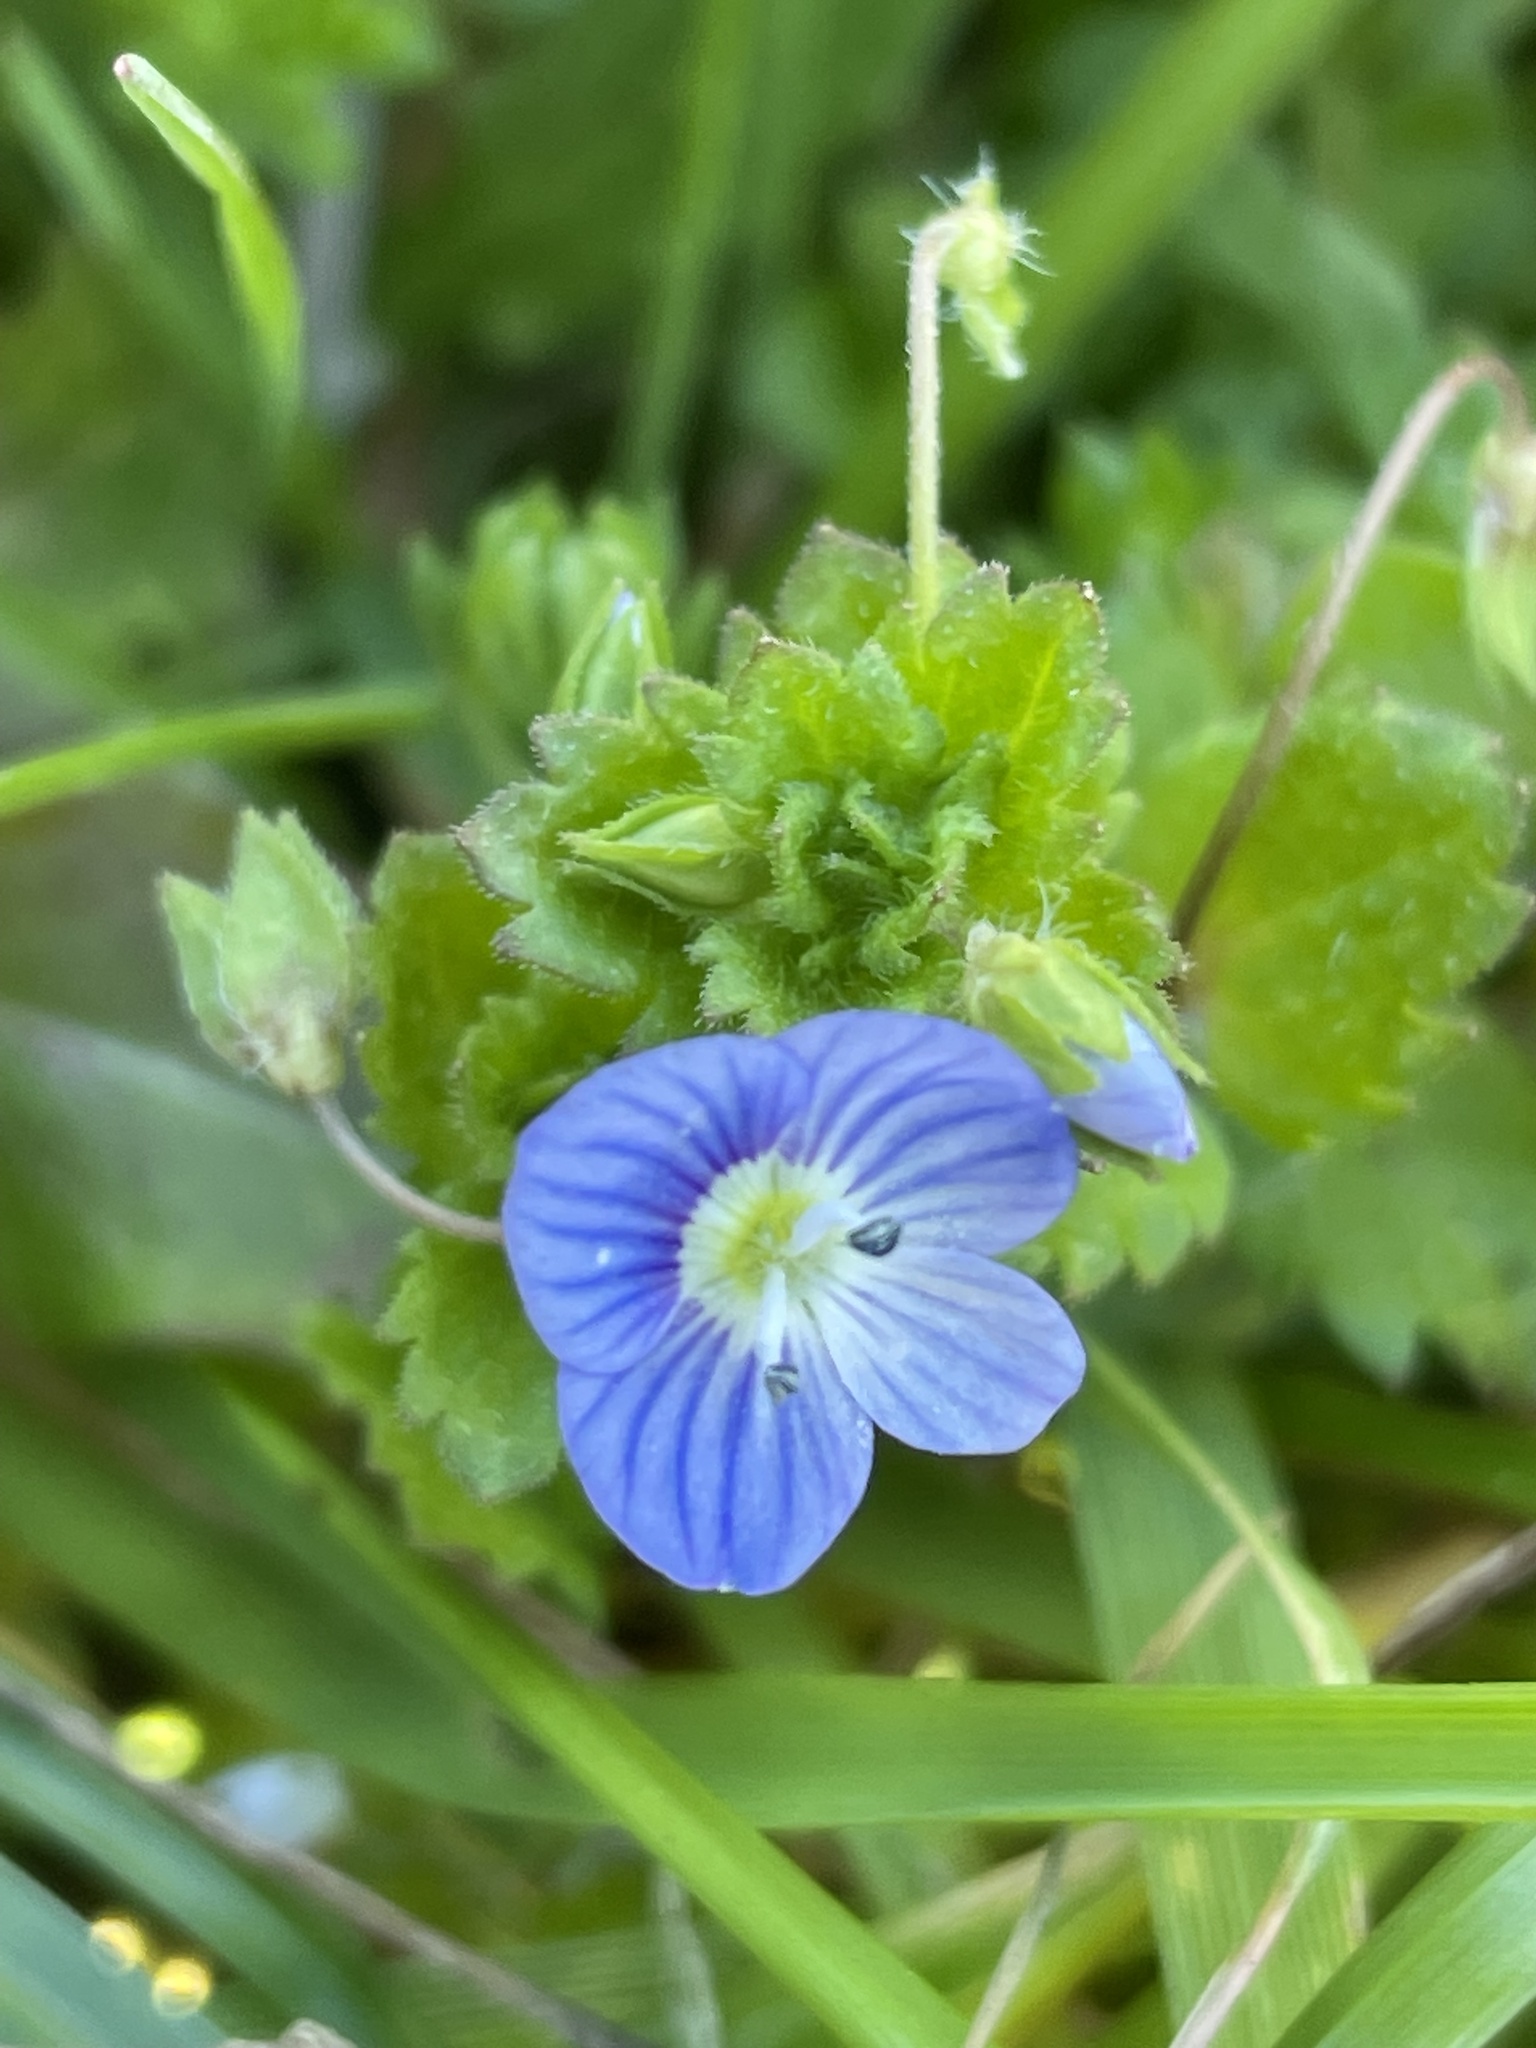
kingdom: Plantae
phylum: Tracheophyta
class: Magnoliopsida
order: Lamiales
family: Plantaginaceae
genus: Veronica
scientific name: Veronica persica
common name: Common field-speedwell
